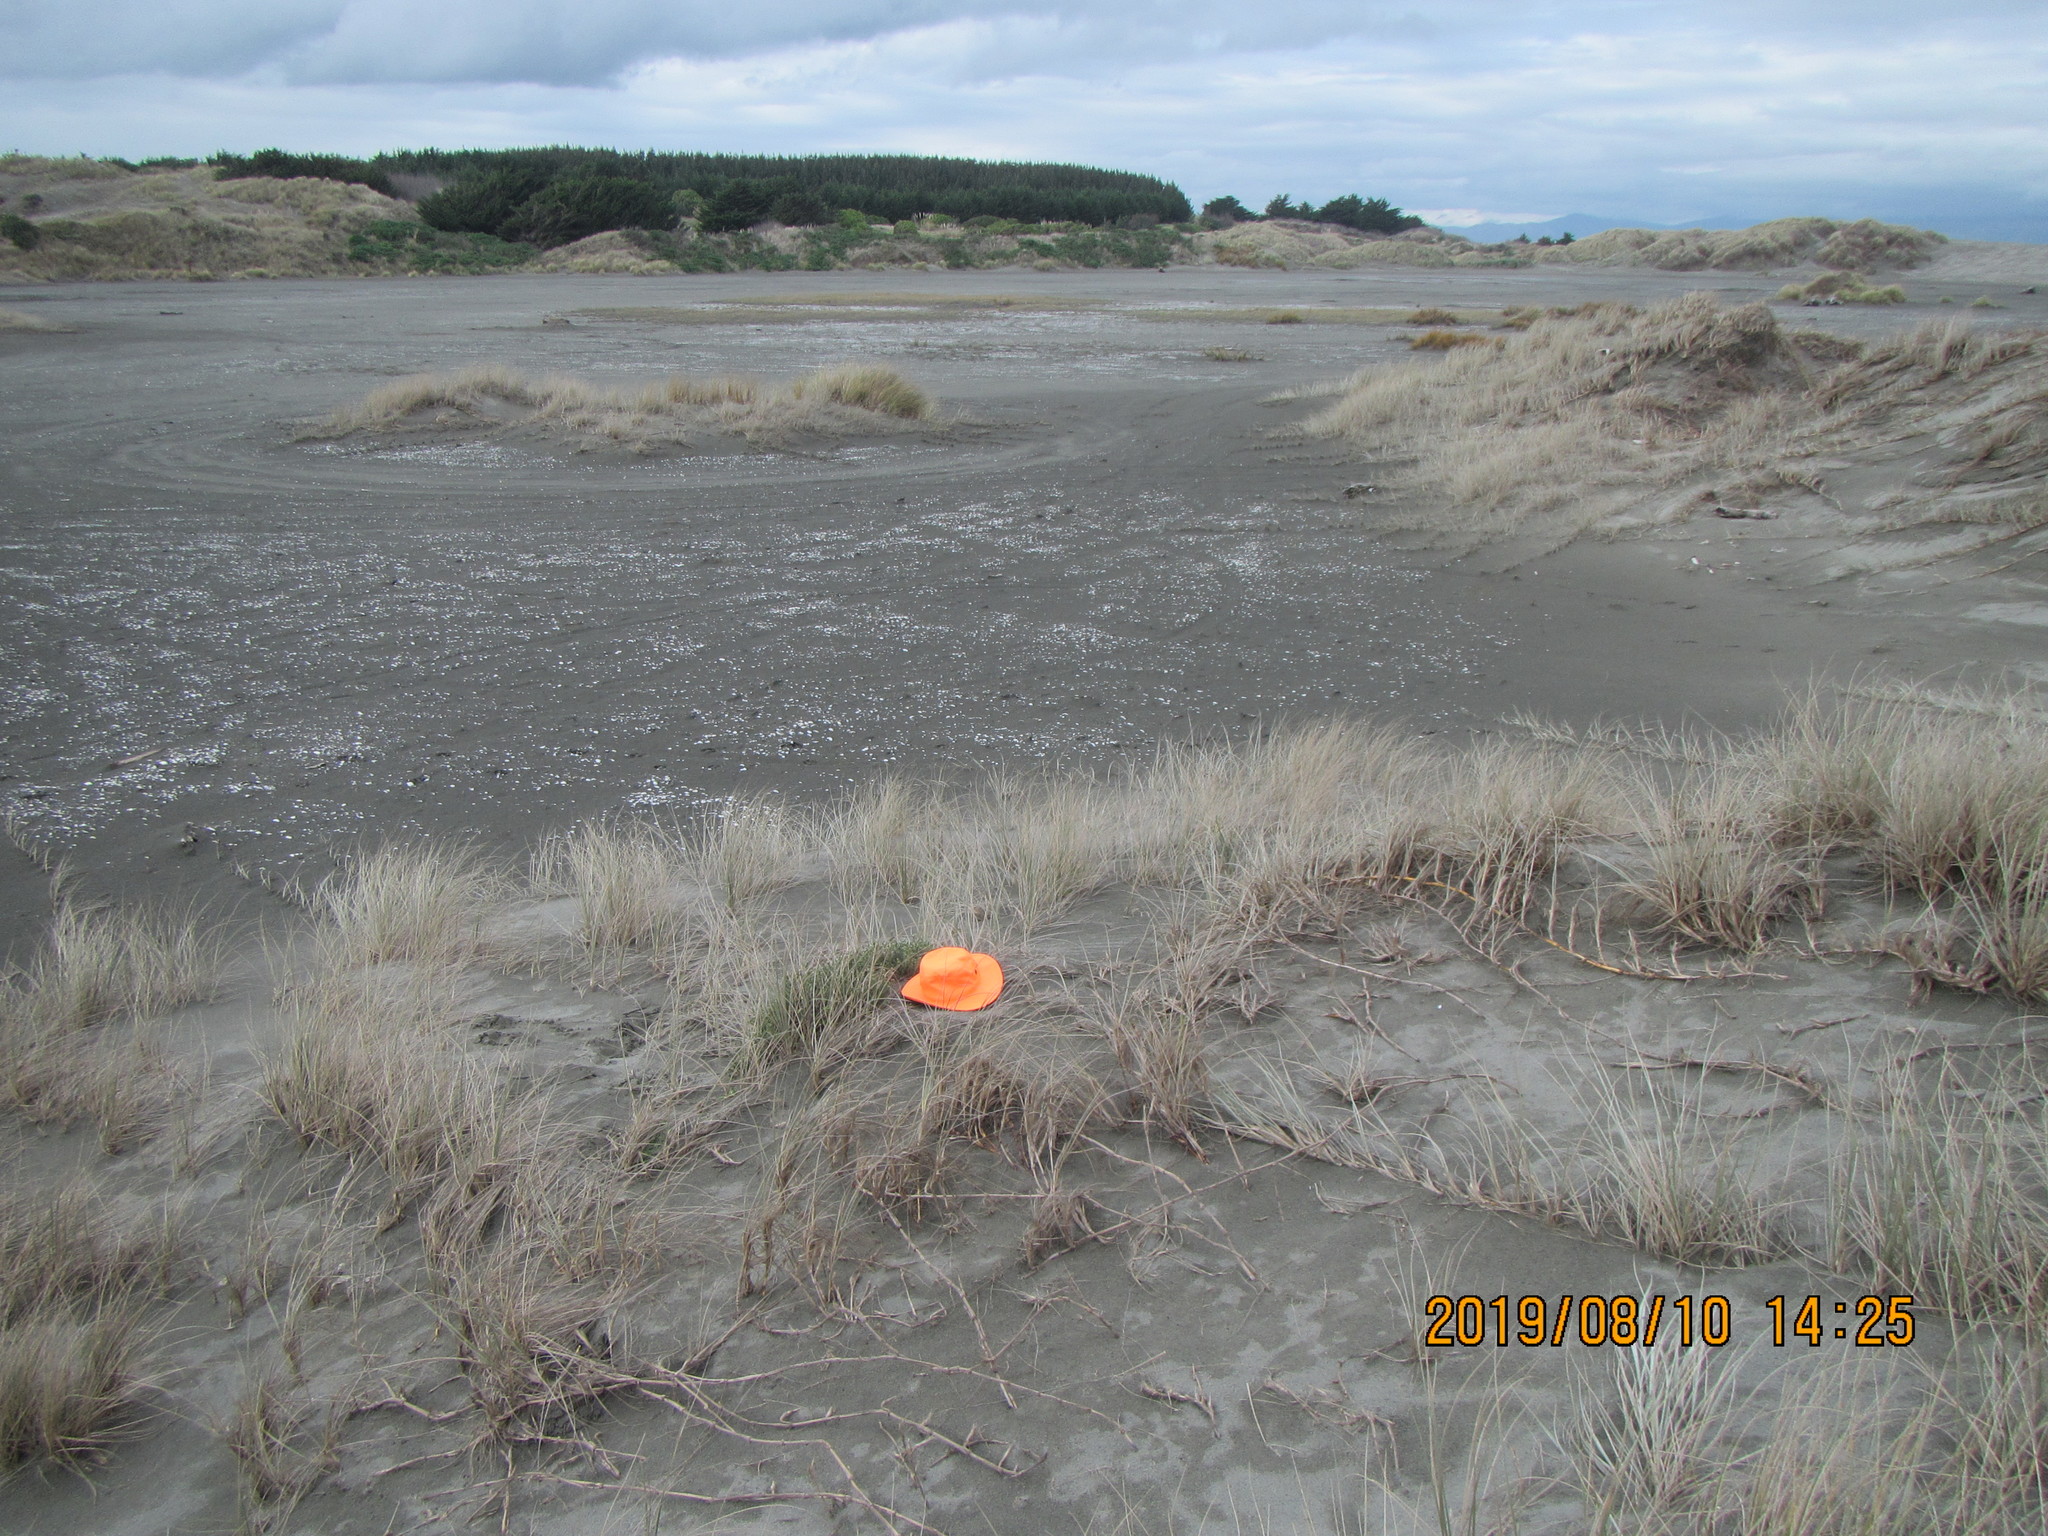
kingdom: Animalia
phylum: Arthropoda
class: Arachnida
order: Araneae
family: Theridiidae
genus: Latrodectus
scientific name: Latrodectus katipo
